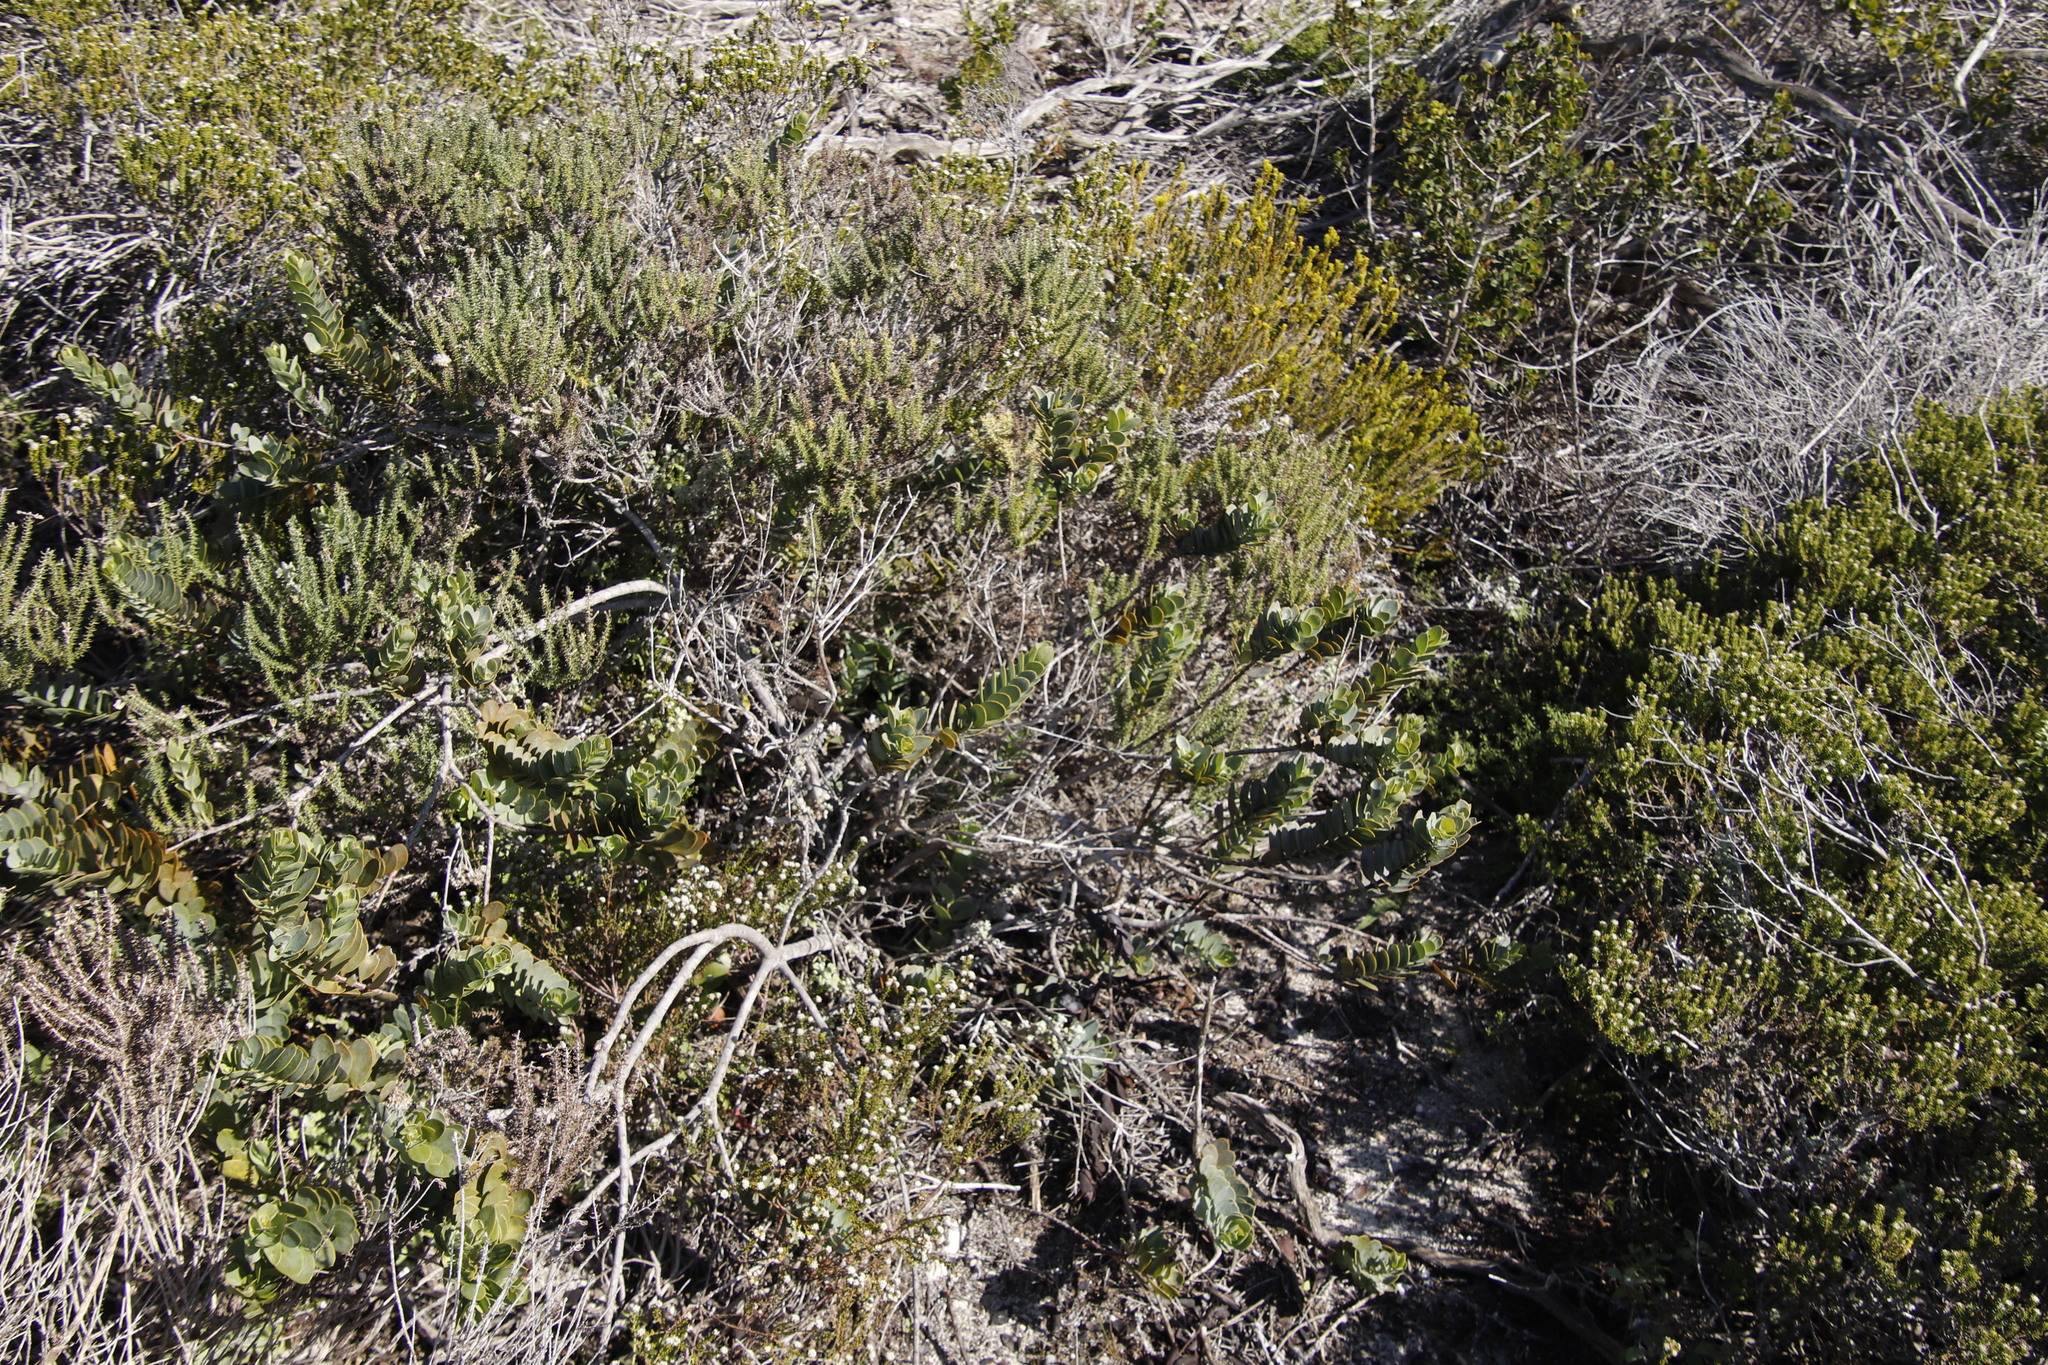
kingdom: Plantae
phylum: Tracheophyta
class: Magnoliopsida
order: Santalales
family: Santalaceae
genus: Osyris
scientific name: Osyris compressa
